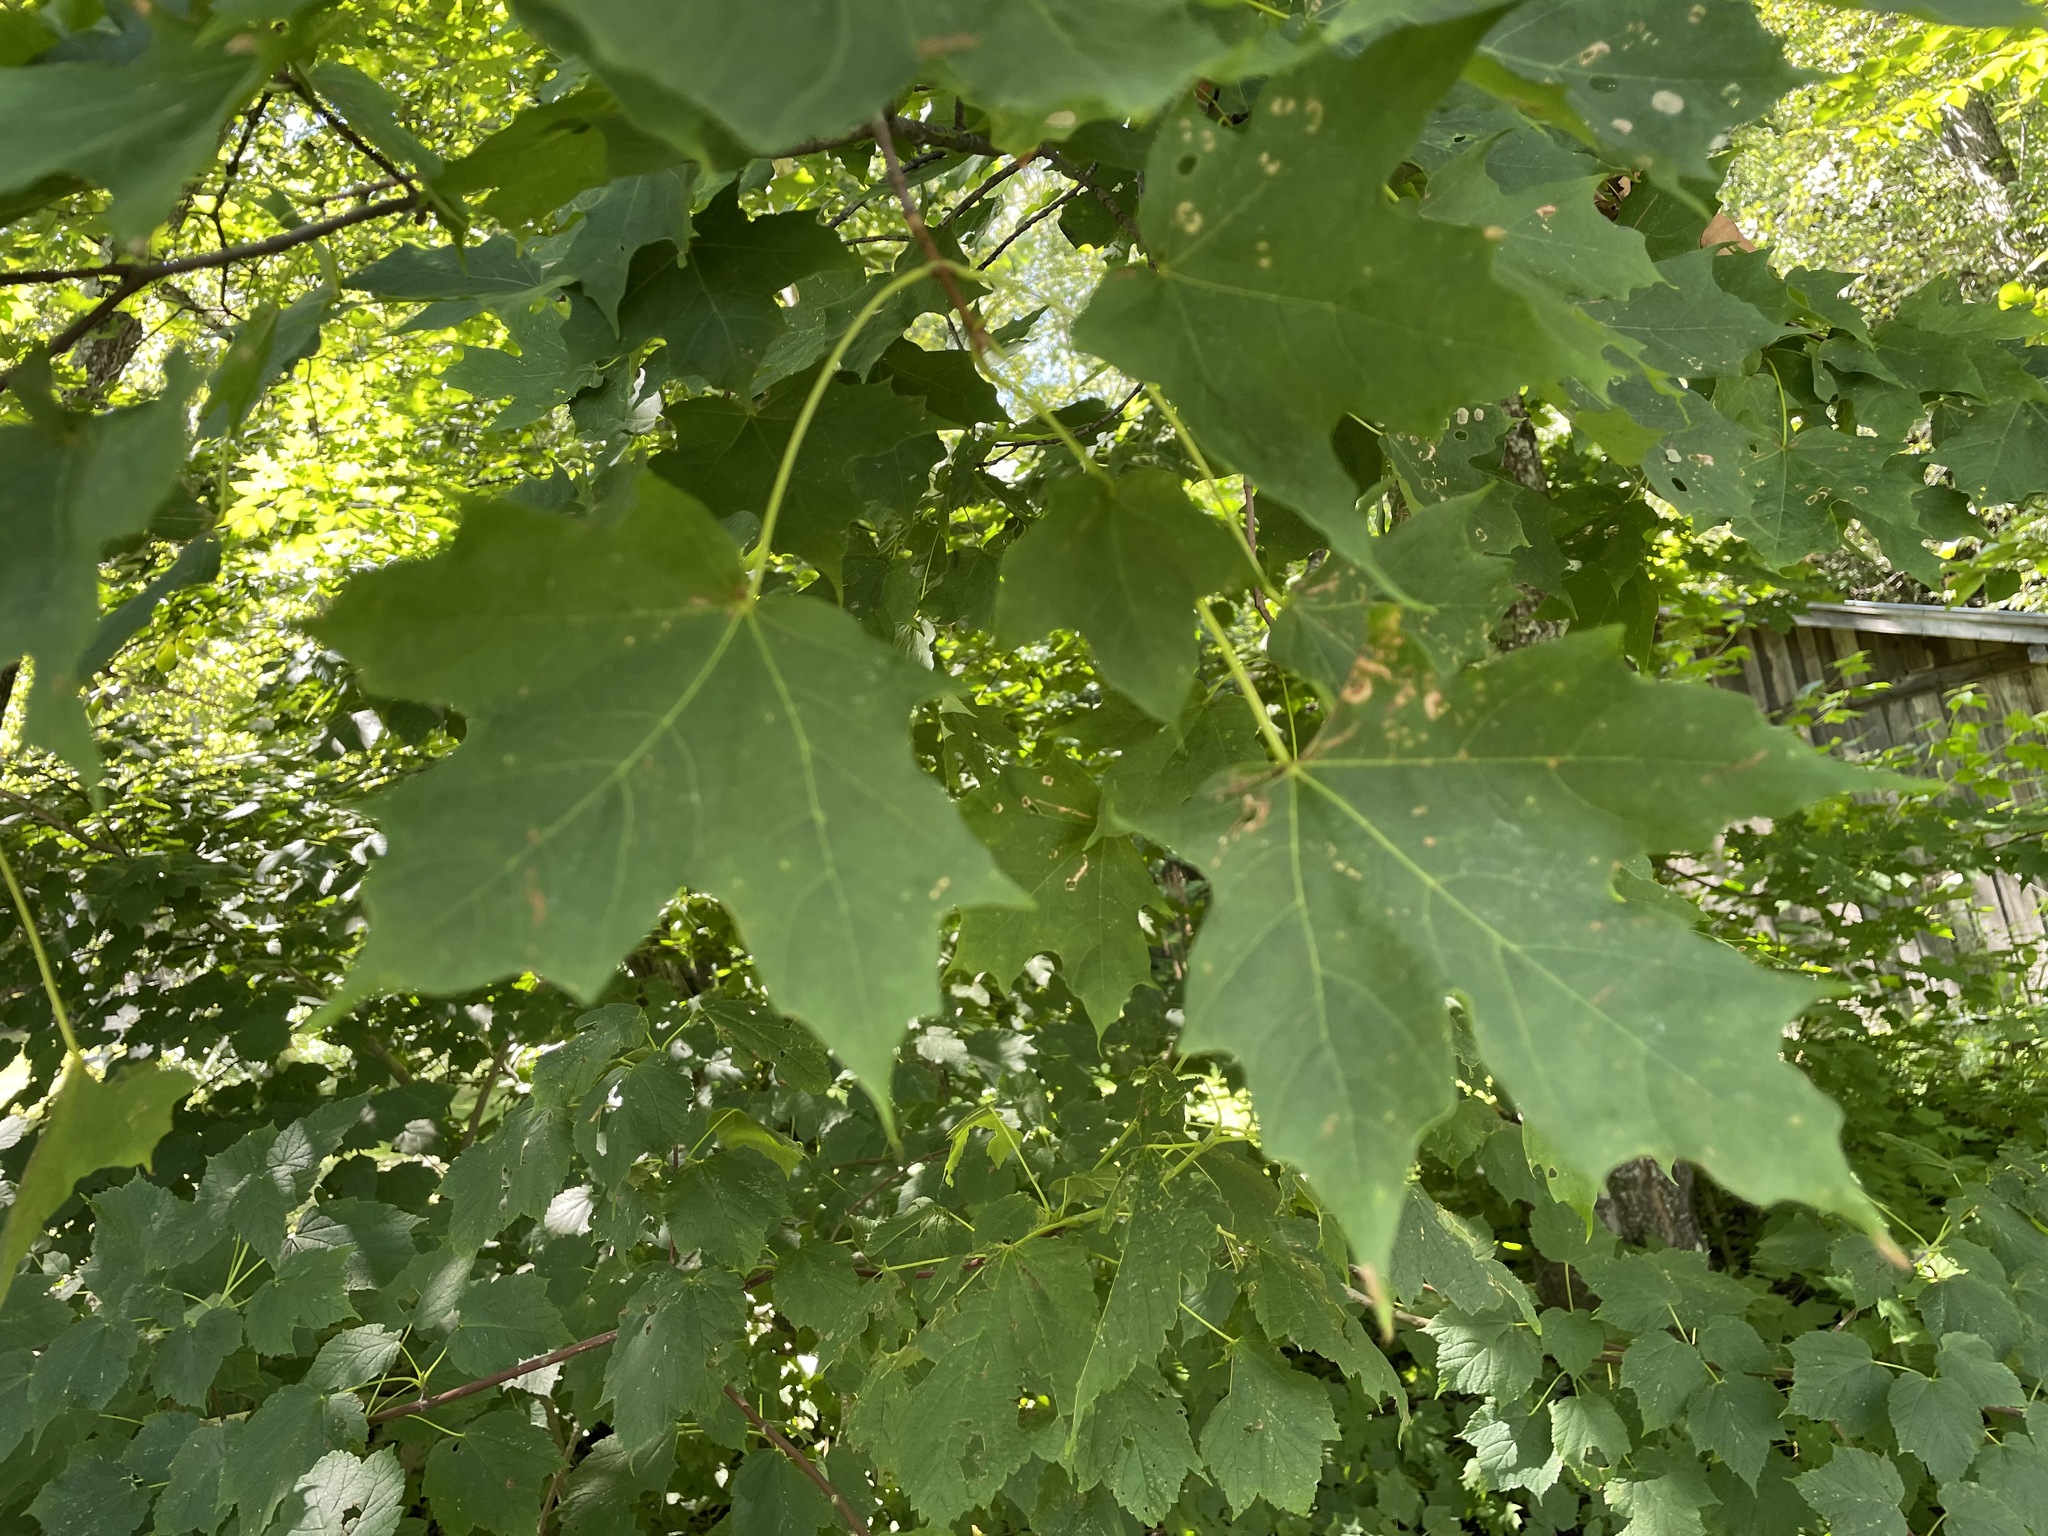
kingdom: Plantae
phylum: Tracheophyta
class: Magnoliopsida
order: Sapindales
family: Sapindaceae
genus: Acer
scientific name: Acer saccharum
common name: Sugar maple
